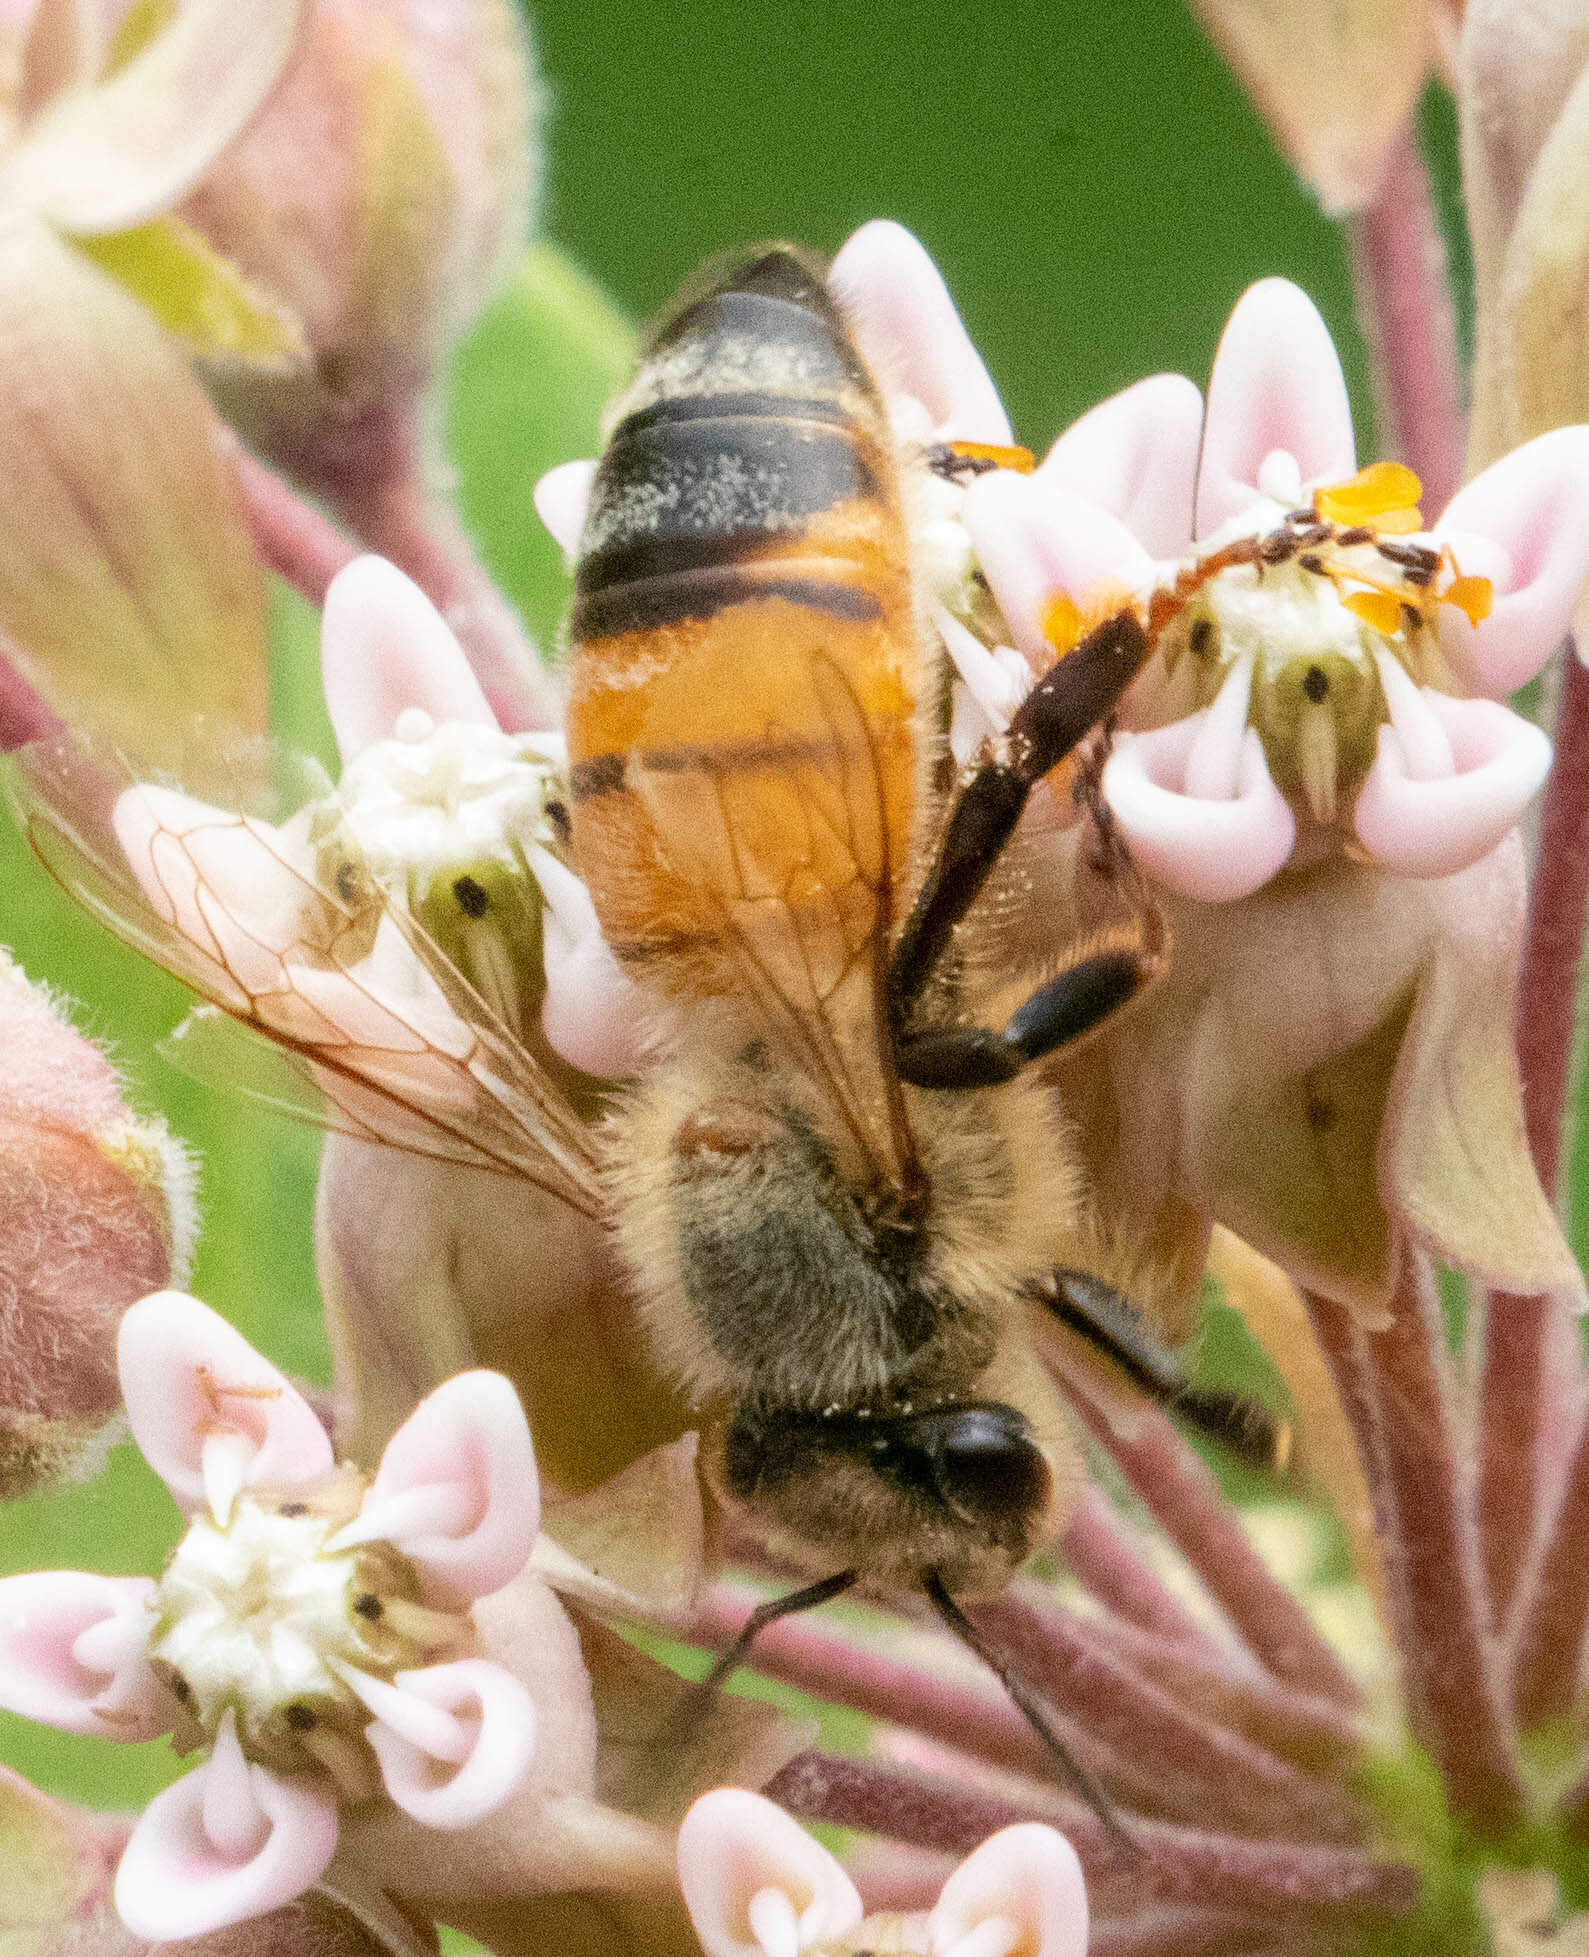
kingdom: Animalia
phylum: Arthropoda
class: Insecta
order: Hymenoptera
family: Apidae
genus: Apis
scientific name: Apis mellifera
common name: Honey bee
